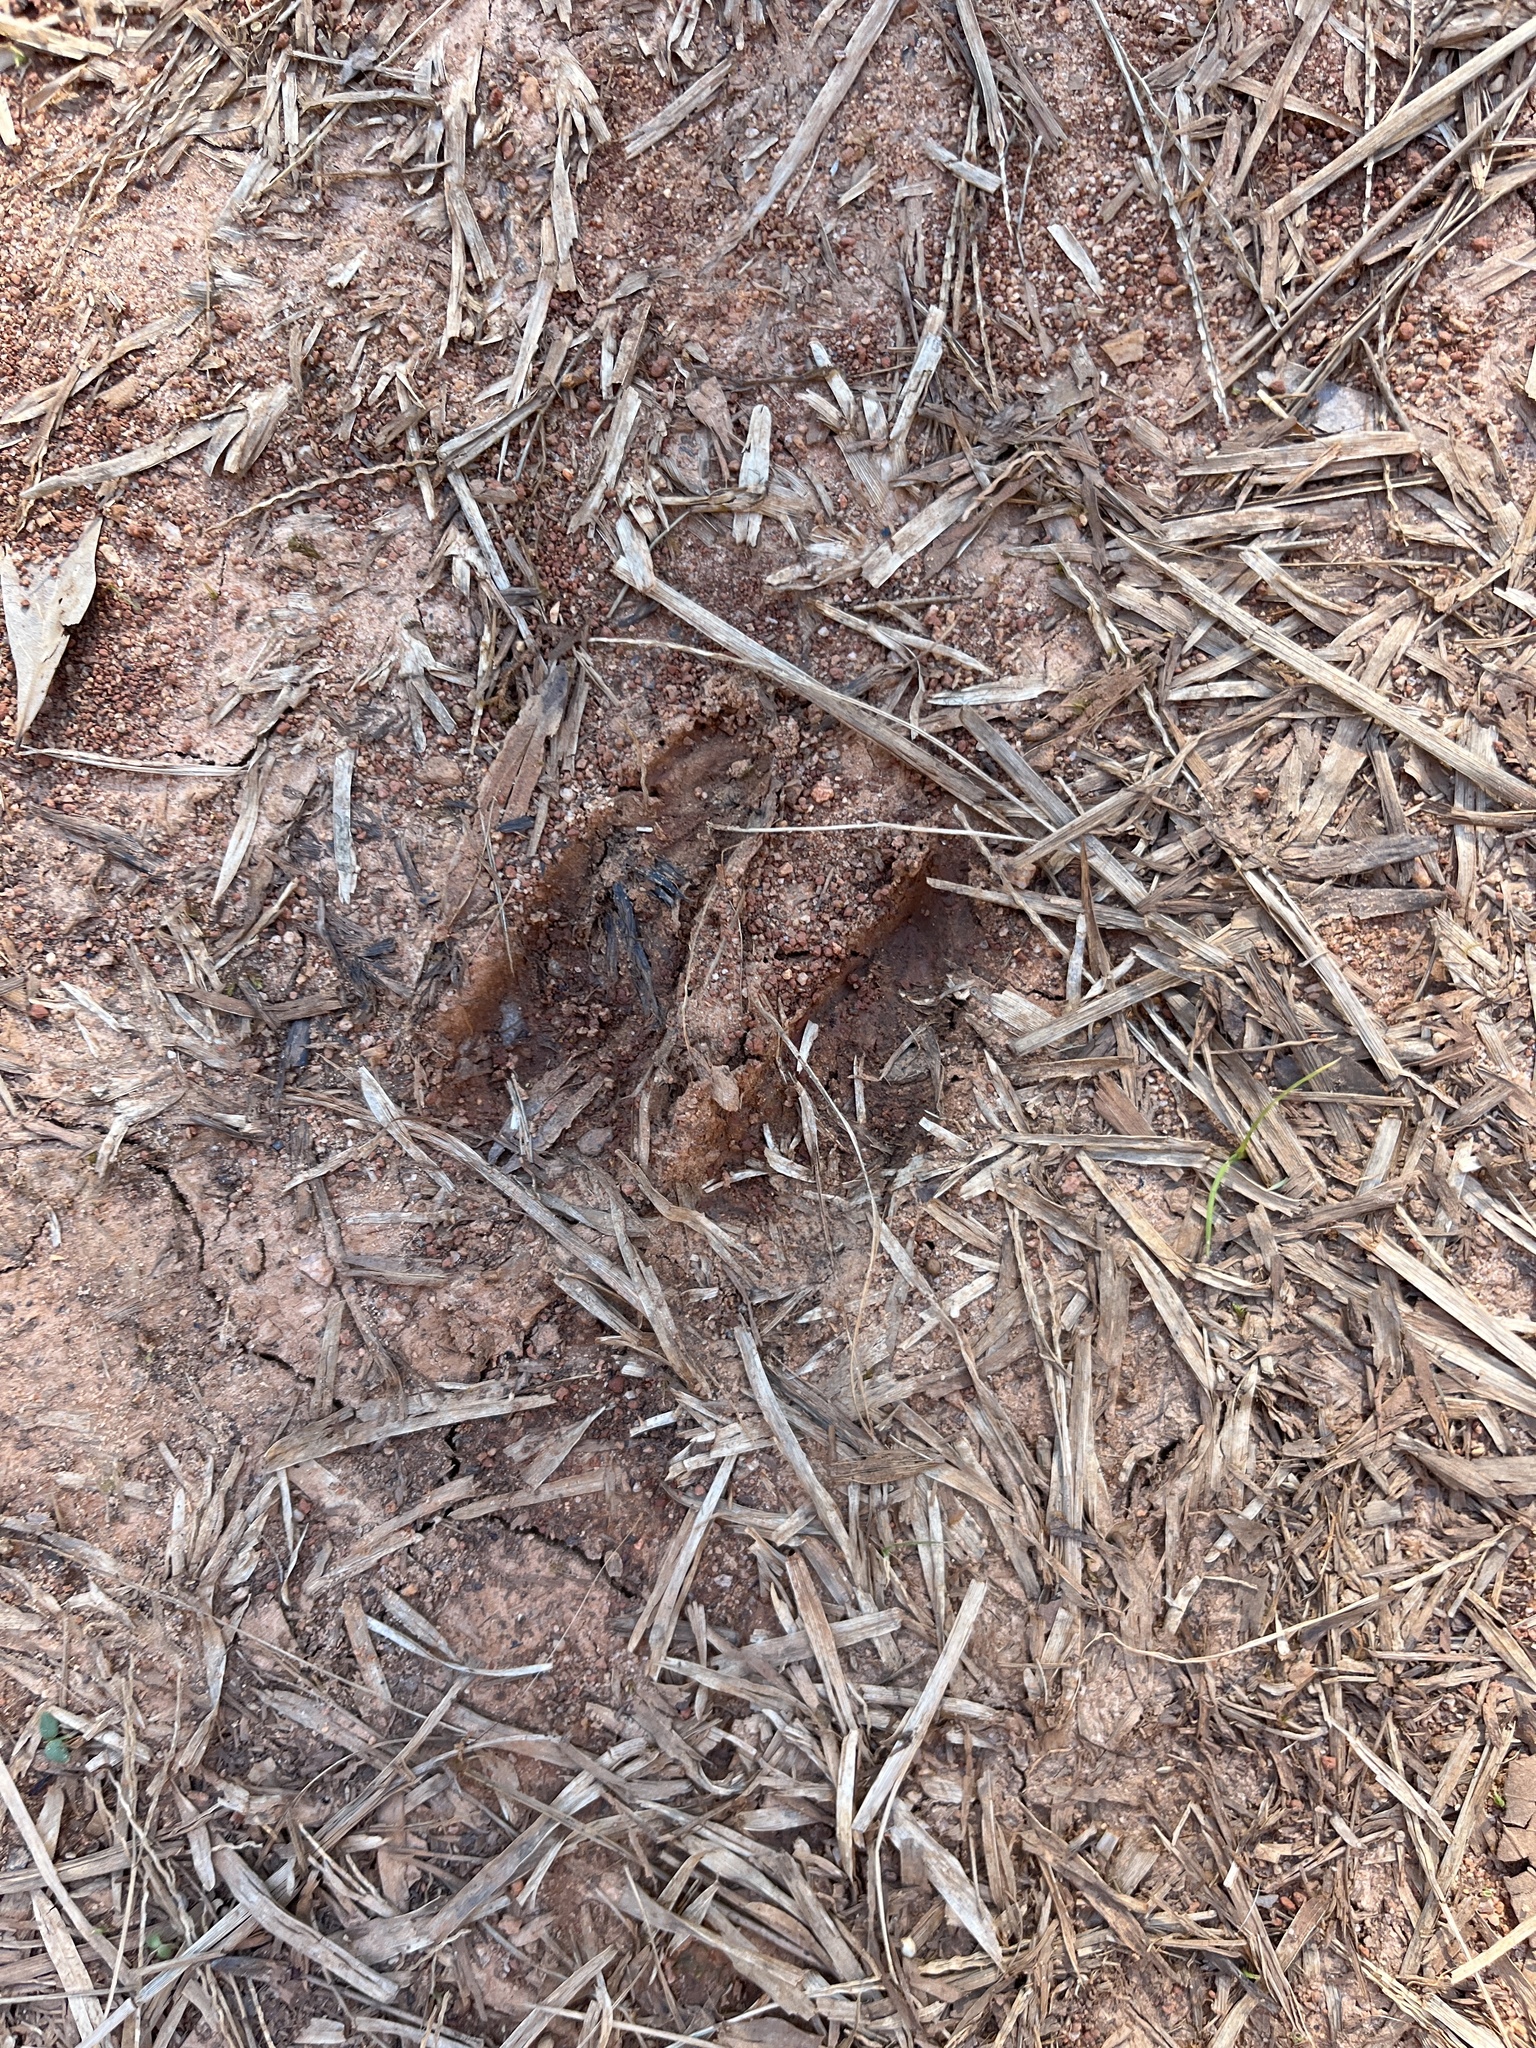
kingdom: Animalia
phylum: Chordata
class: Mammalia
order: Artiodactyla
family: Cervidae
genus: Odocoileus
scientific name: Odocoileus virginianus
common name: White-tailed deer
